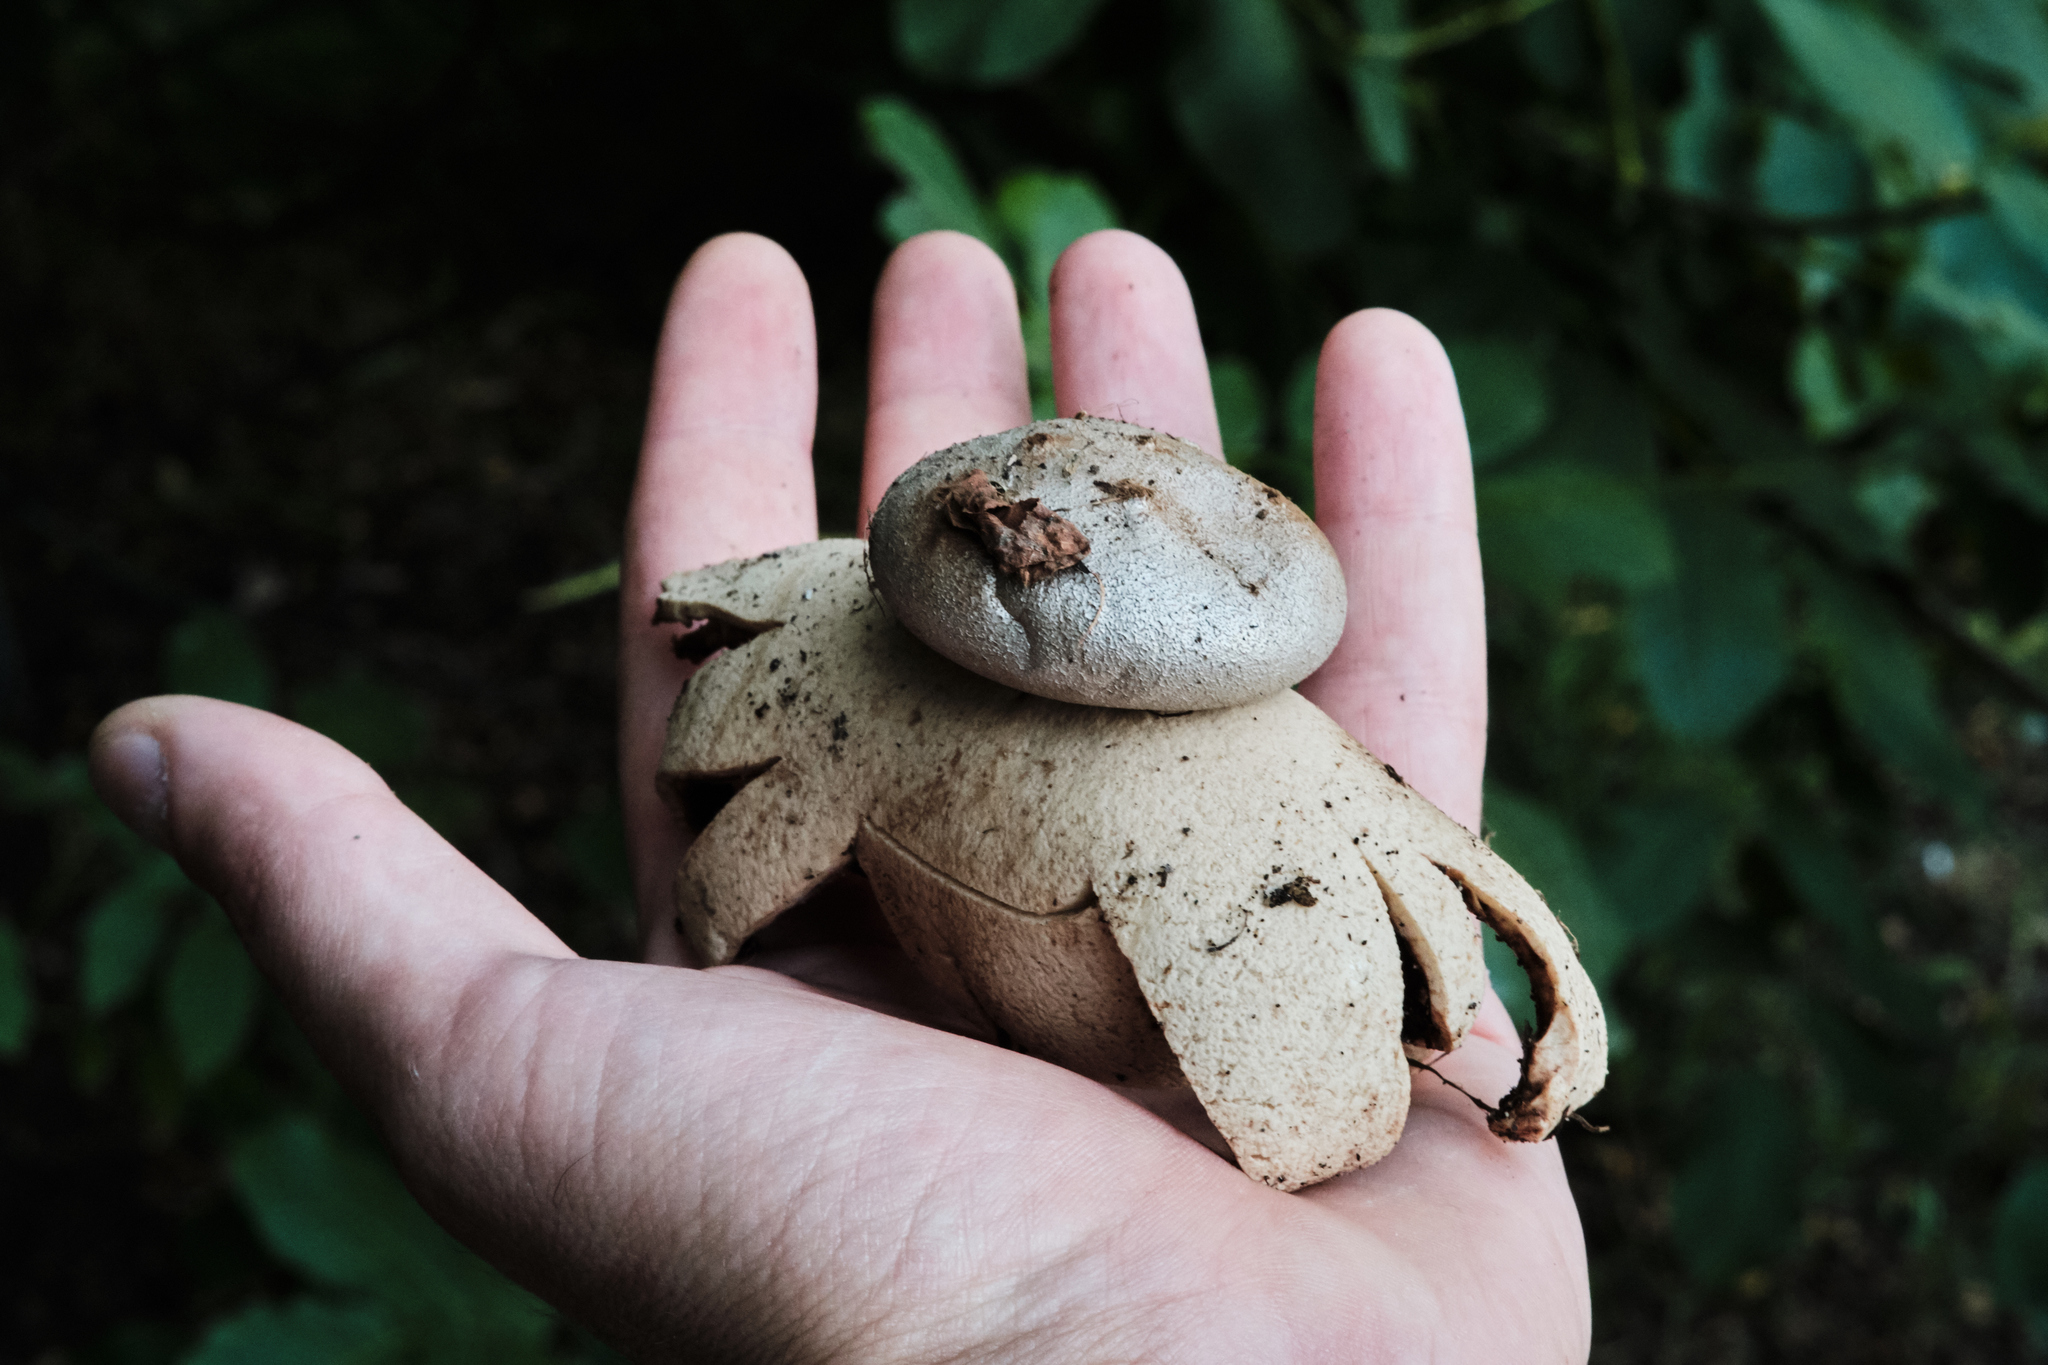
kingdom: Fungi
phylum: Basidiomycota
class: Agaricomycetes
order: Geastrales
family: Geastraceae
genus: Myriostoma
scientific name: Myriostoma coliforme
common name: Pepper pot
